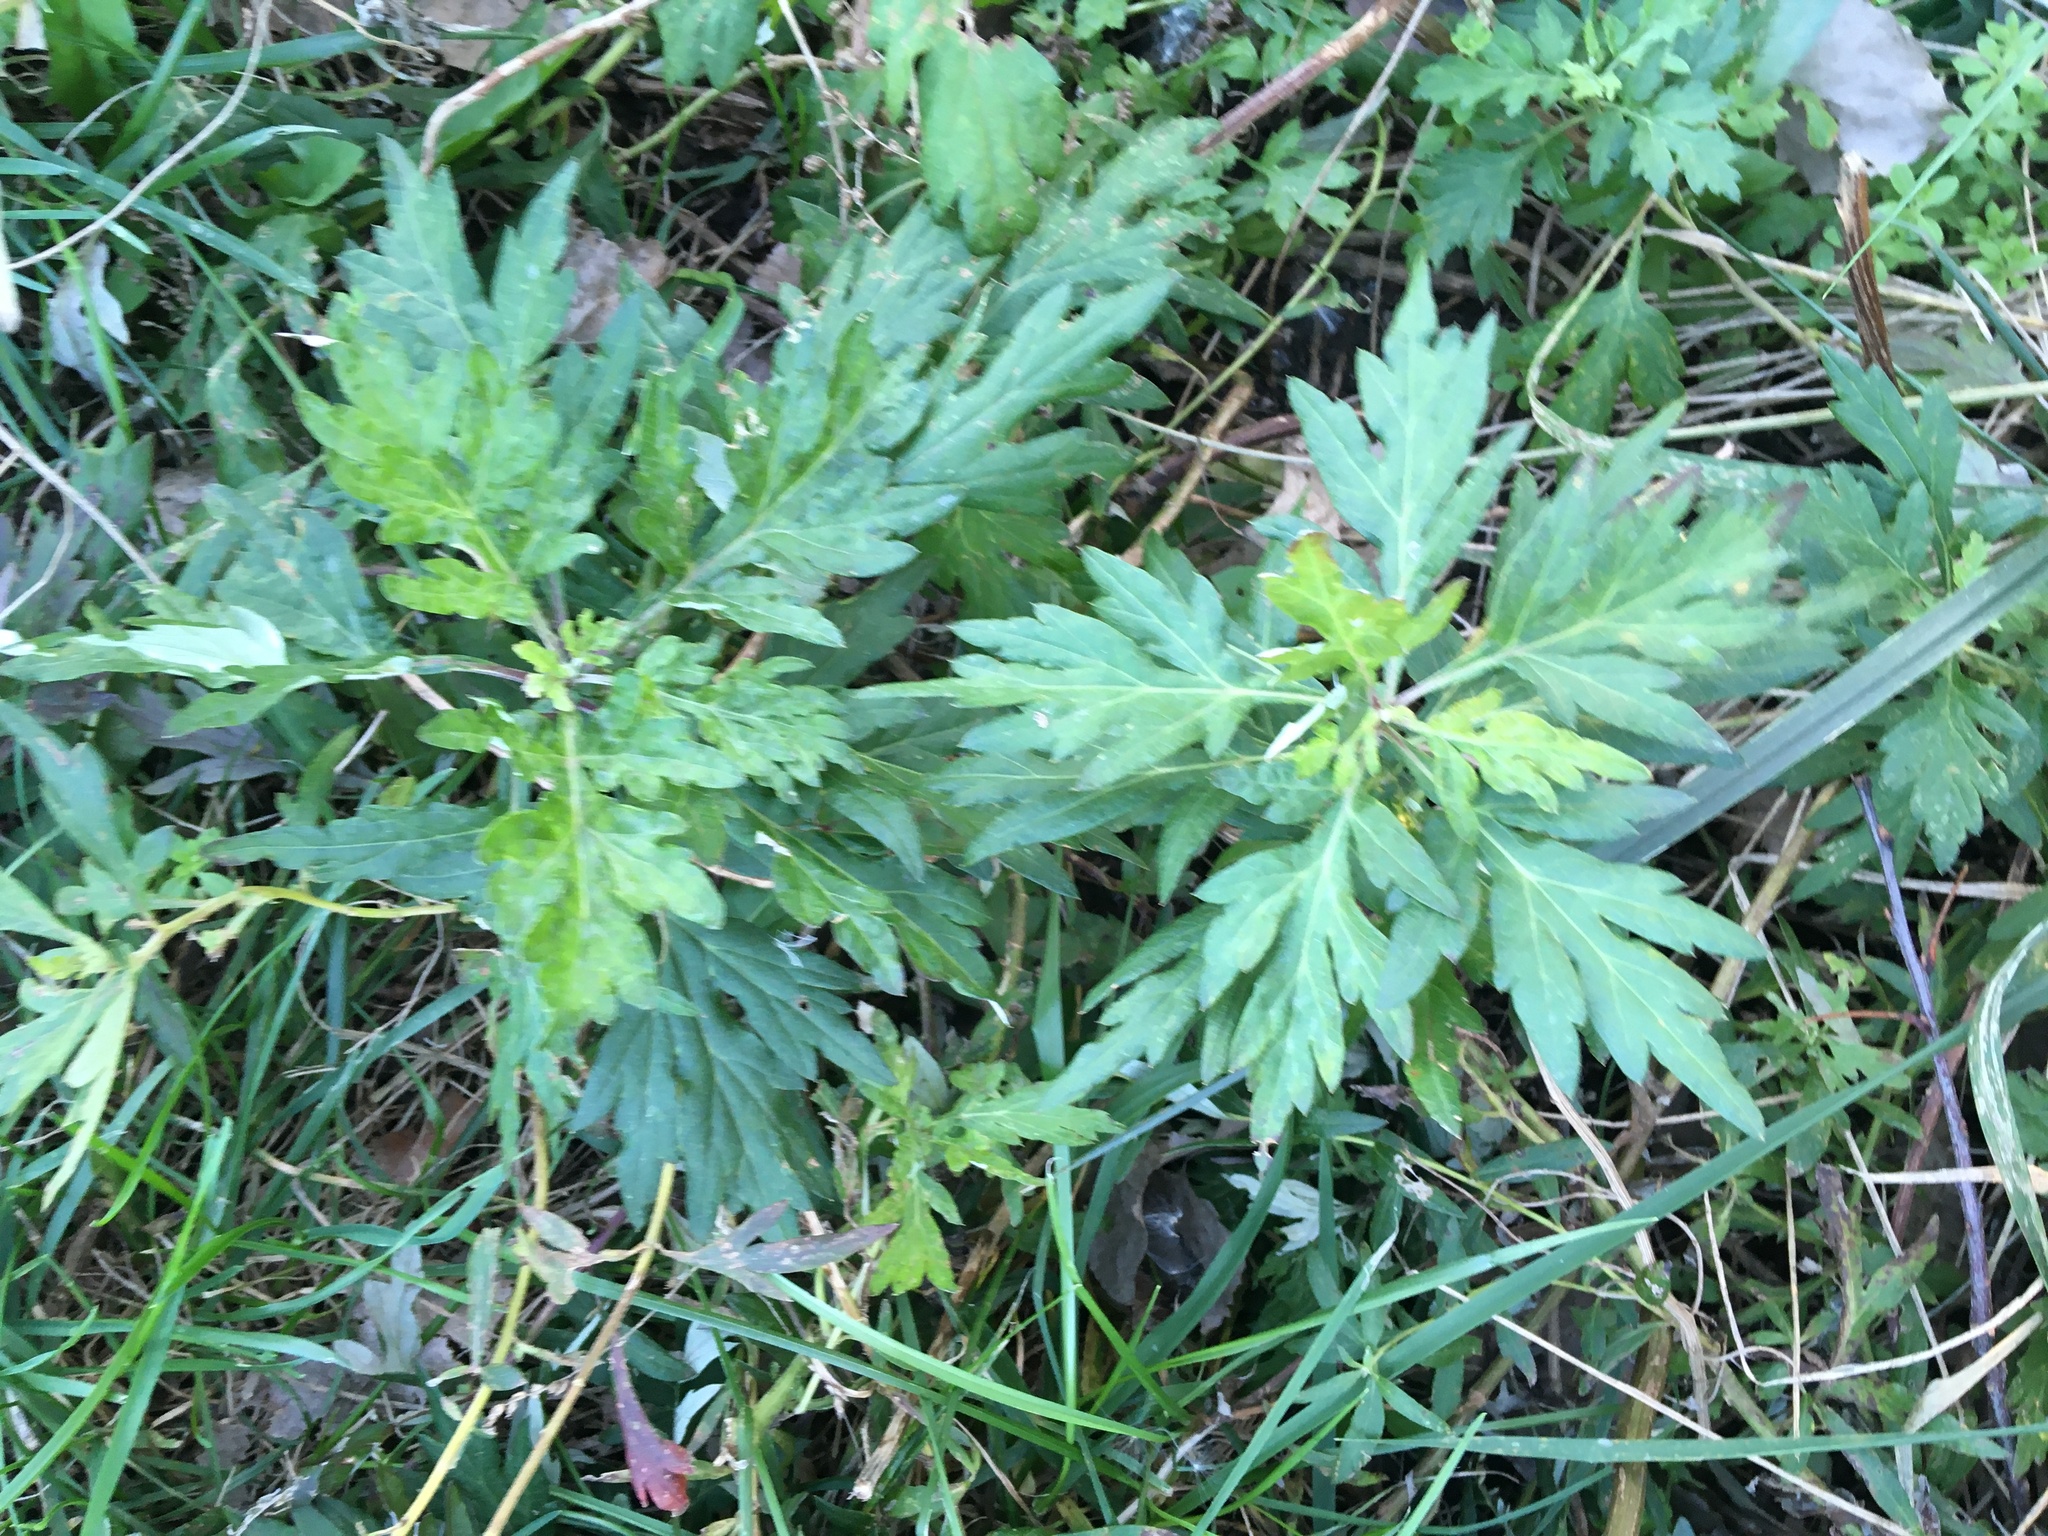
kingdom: Plantae
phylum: Tracheophyta
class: Magnoliopsida
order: Asterales
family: Asteraceae
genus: Artemisia
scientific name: Artemisia vulgaris
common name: Mugwort
